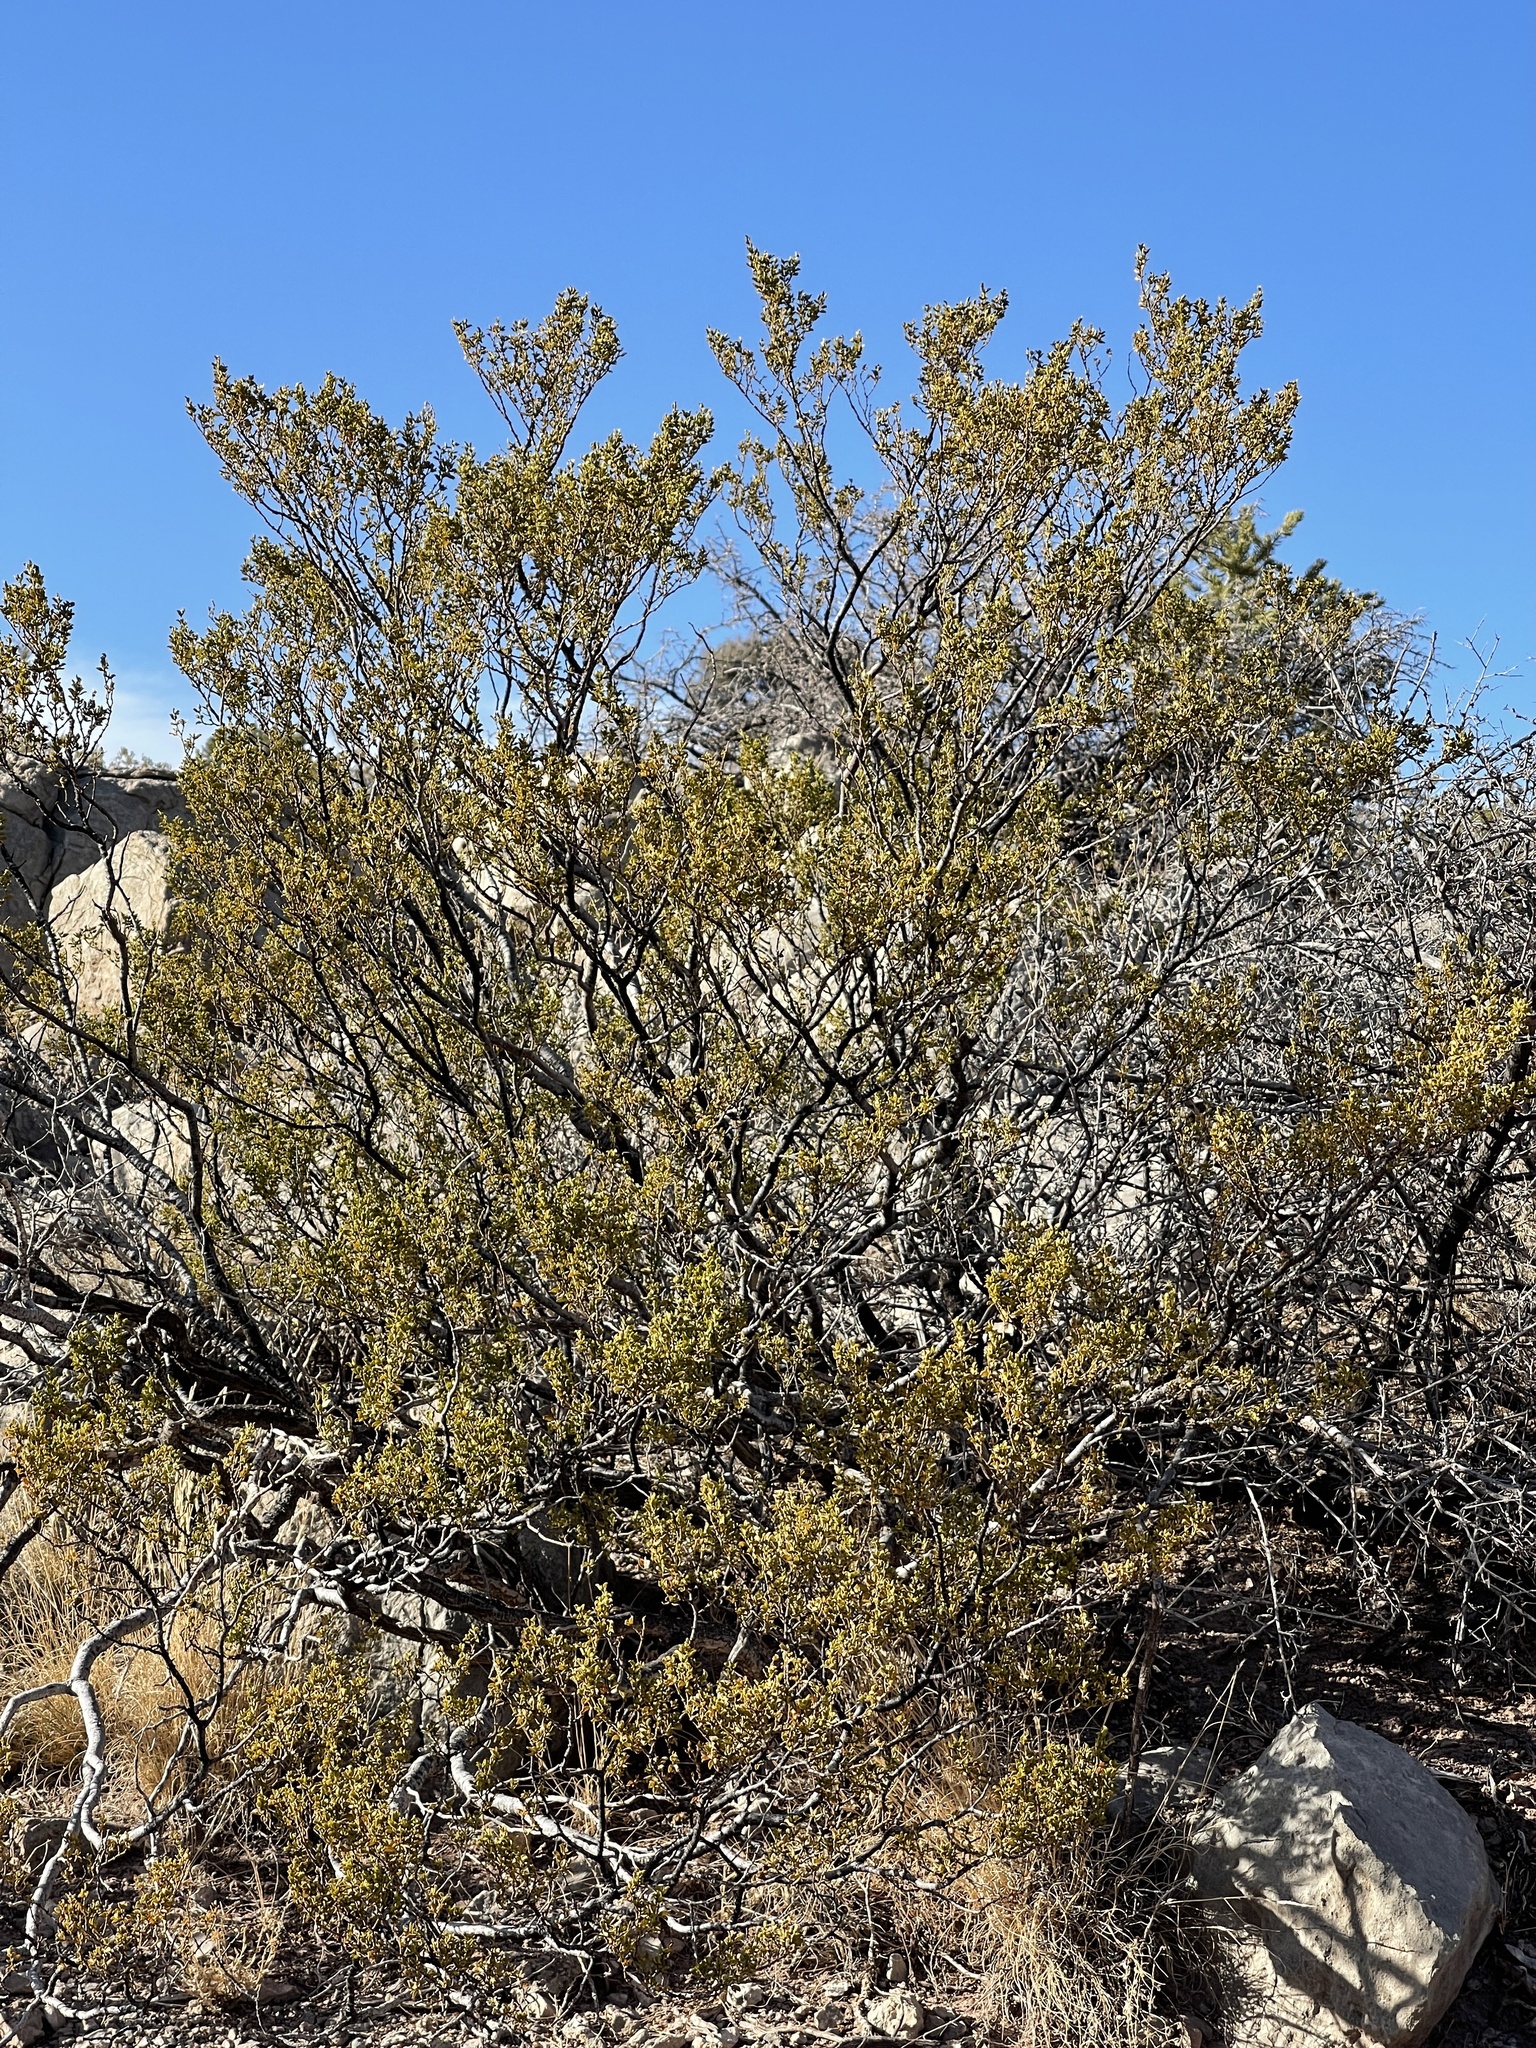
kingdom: Plantae
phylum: Tracheophyta
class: Magnoliopsida
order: Zygophyllales
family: Zygophyllaceae
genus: Larrea
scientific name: Larrea tridentata
